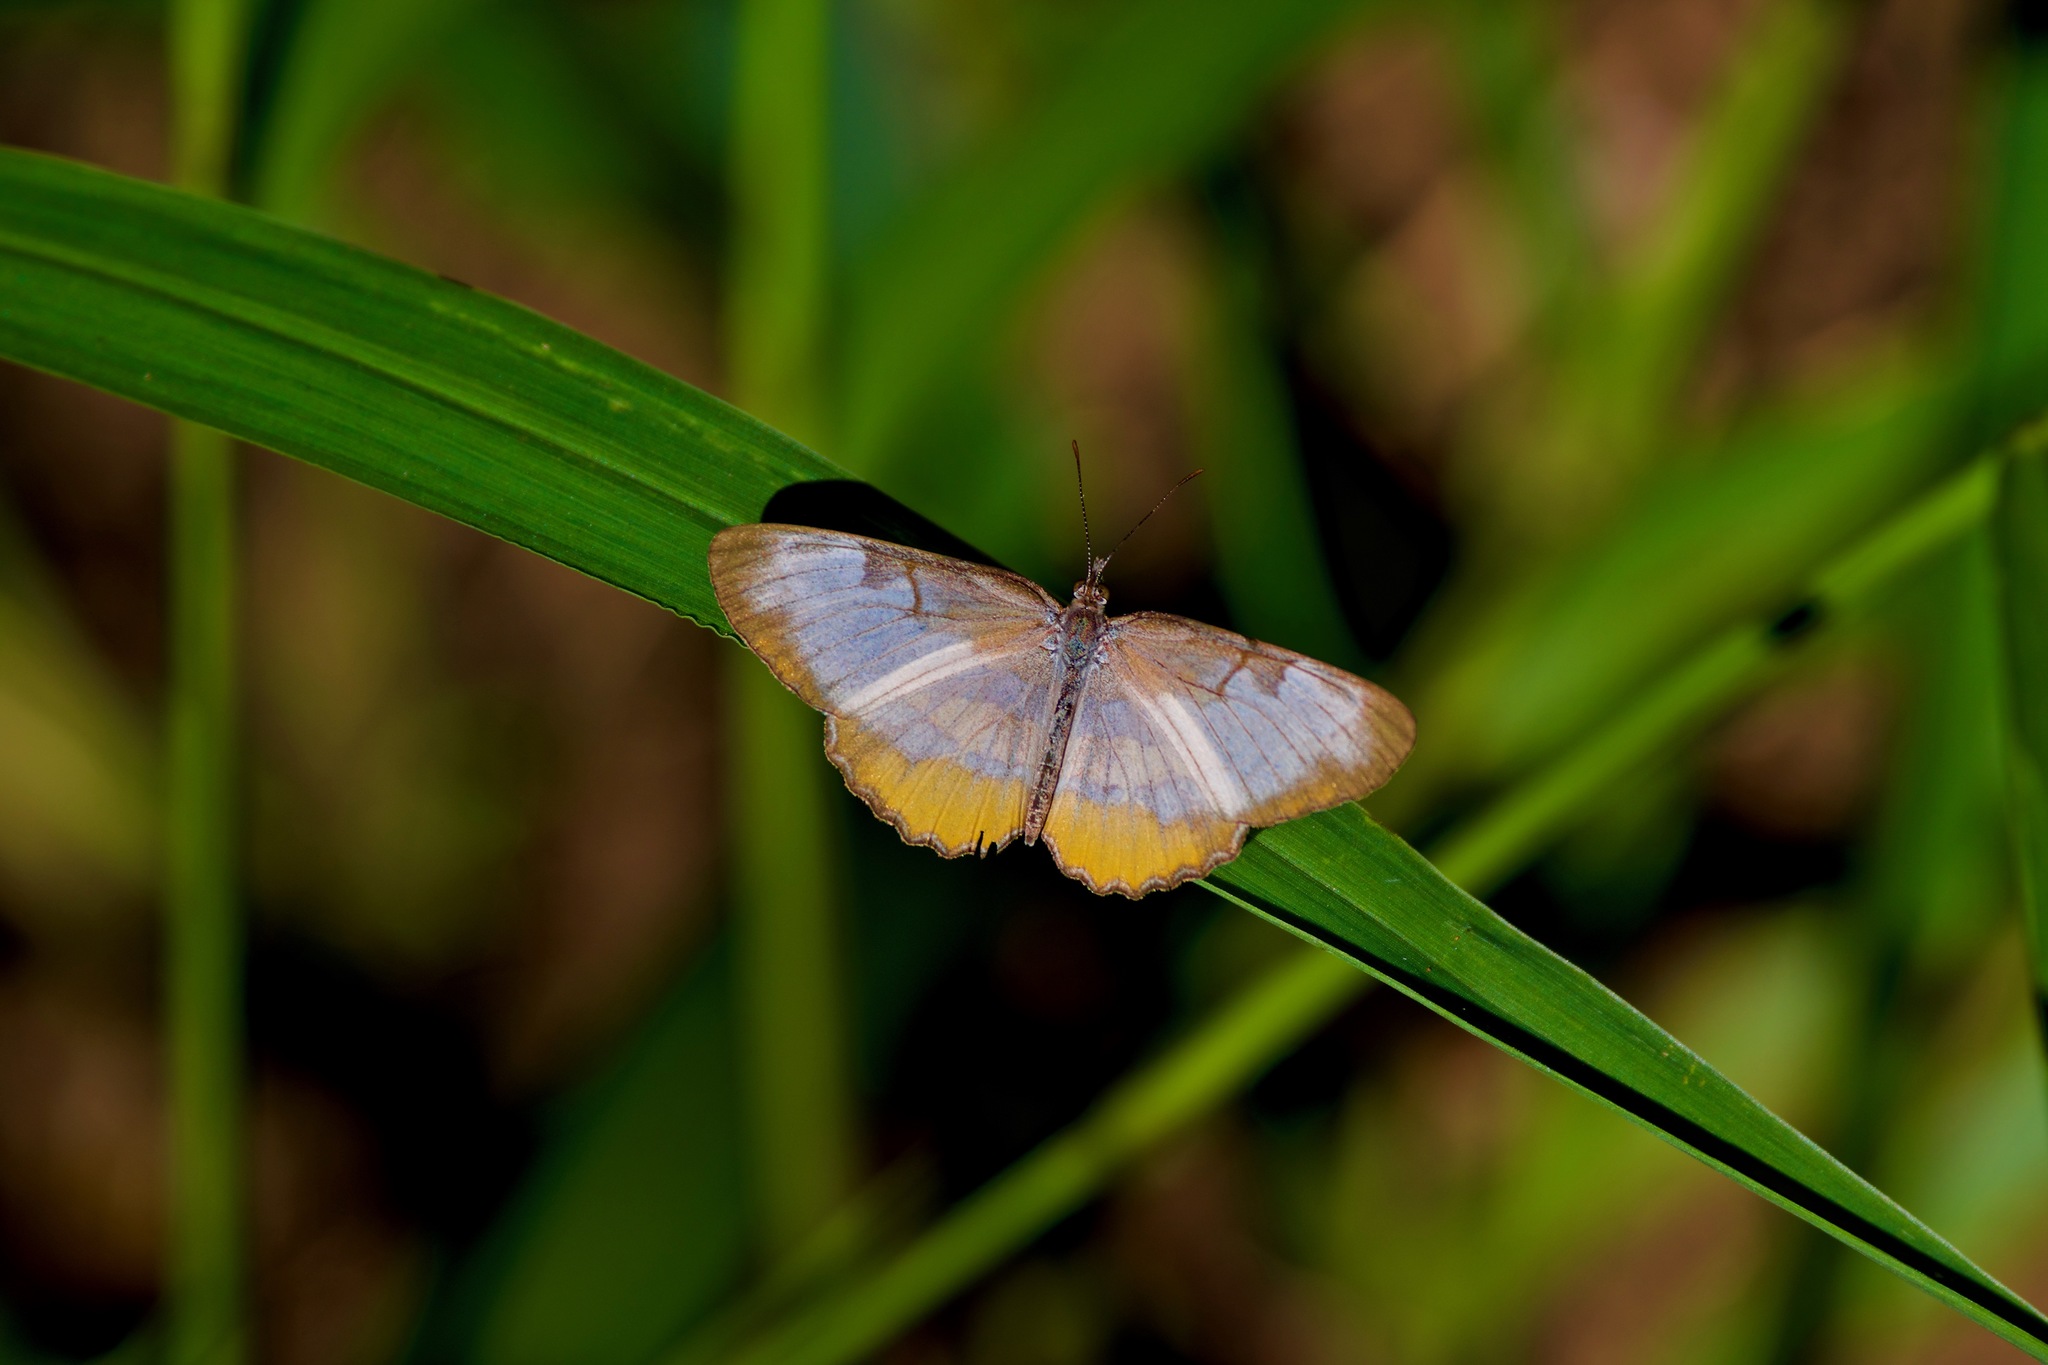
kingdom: Animalia
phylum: Arthropoda
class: Insecta
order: Lepidoptera
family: Nymphalidae
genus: Mestra
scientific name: Mestra amymone
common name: Common mestra
